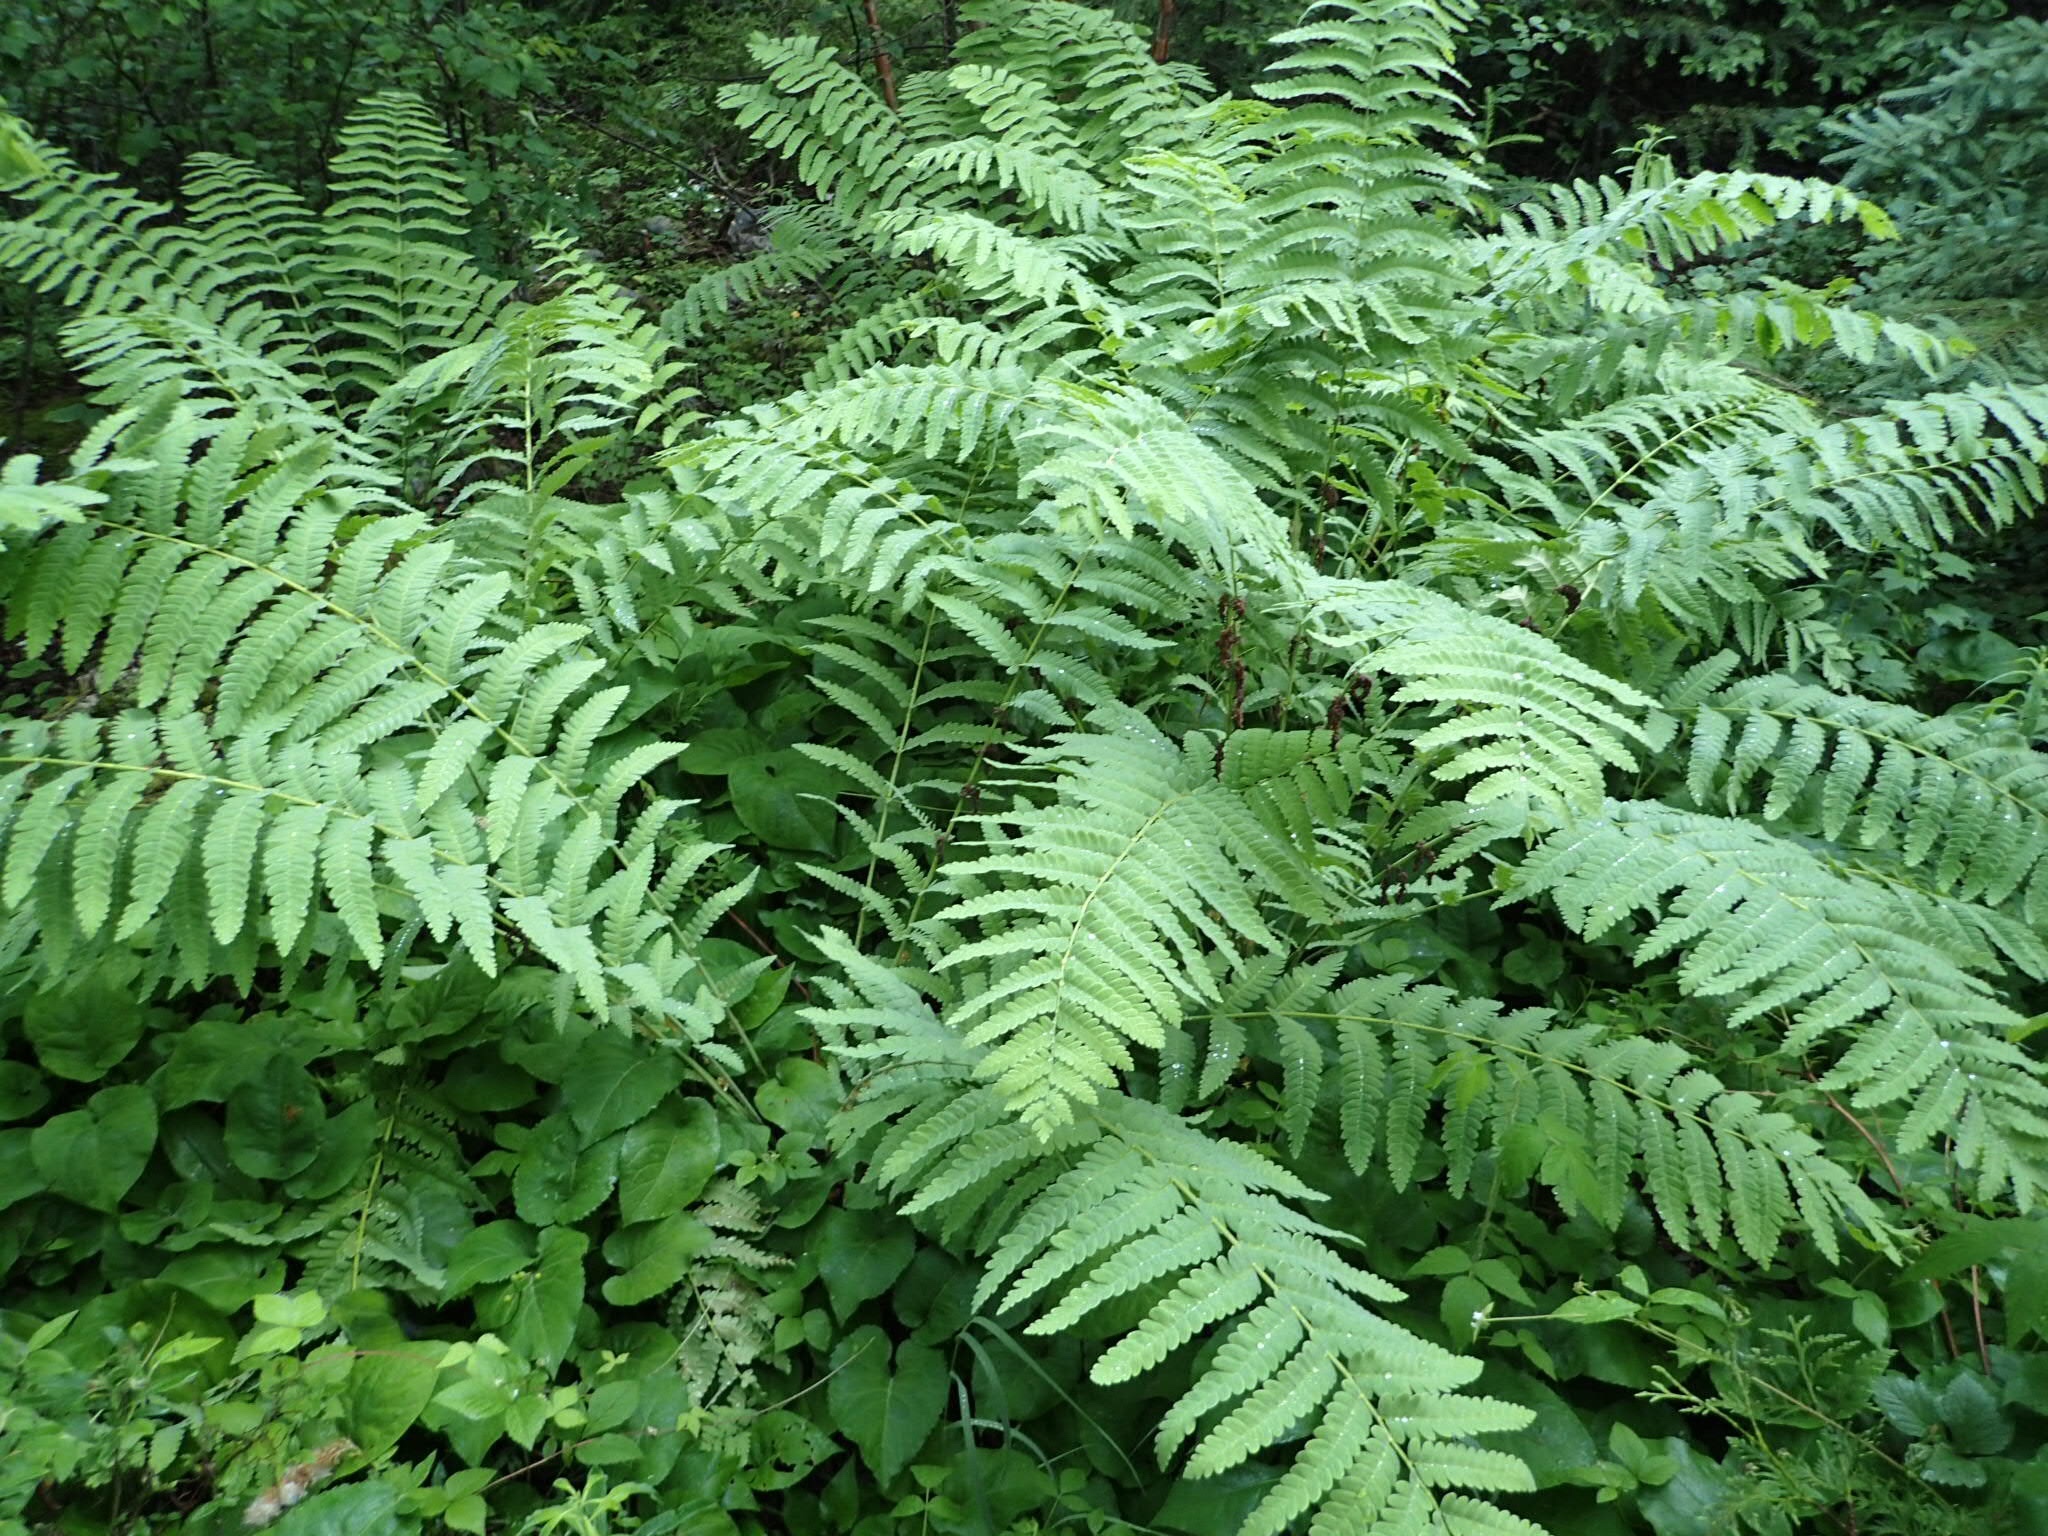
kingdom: Plantae
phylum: Tracheophyta
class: Polypodiopsida
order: Osmundales
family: Osmundaceae
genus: Claytosmunda
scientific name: Claytosmunda claytoniana
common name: Clayton's fern
